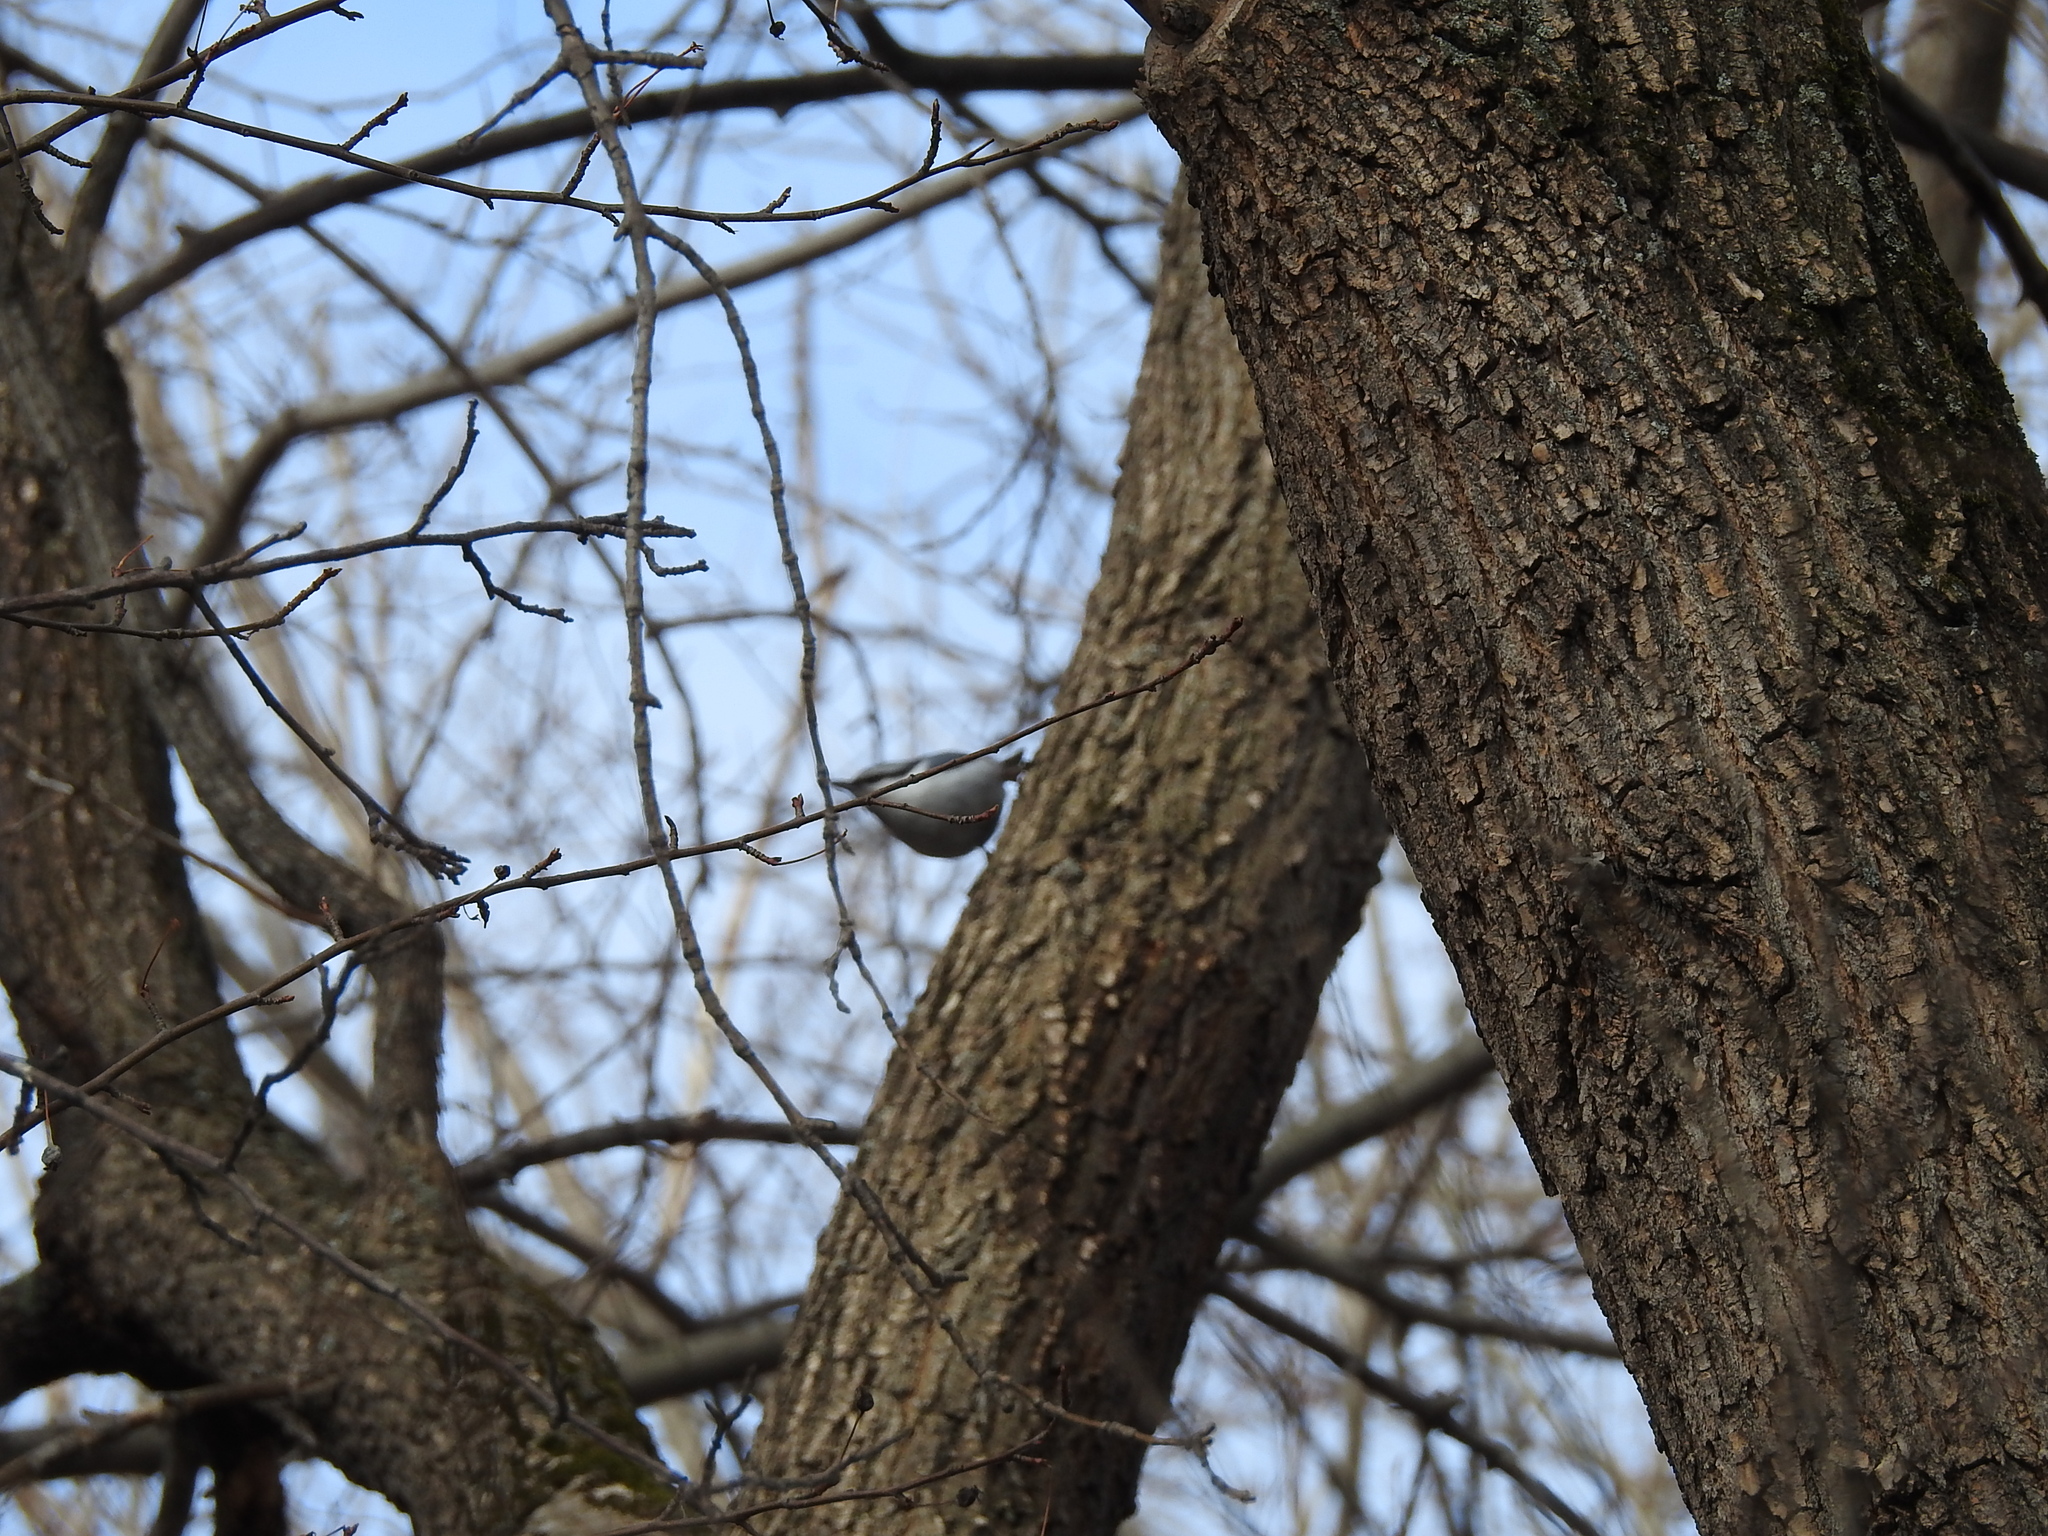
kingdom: Animalia
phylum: Chordata
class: Aves
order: Passeriformes
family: Sittidae
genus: Sitta
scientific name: Sitta europaea
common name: Eurasian nuthatch
